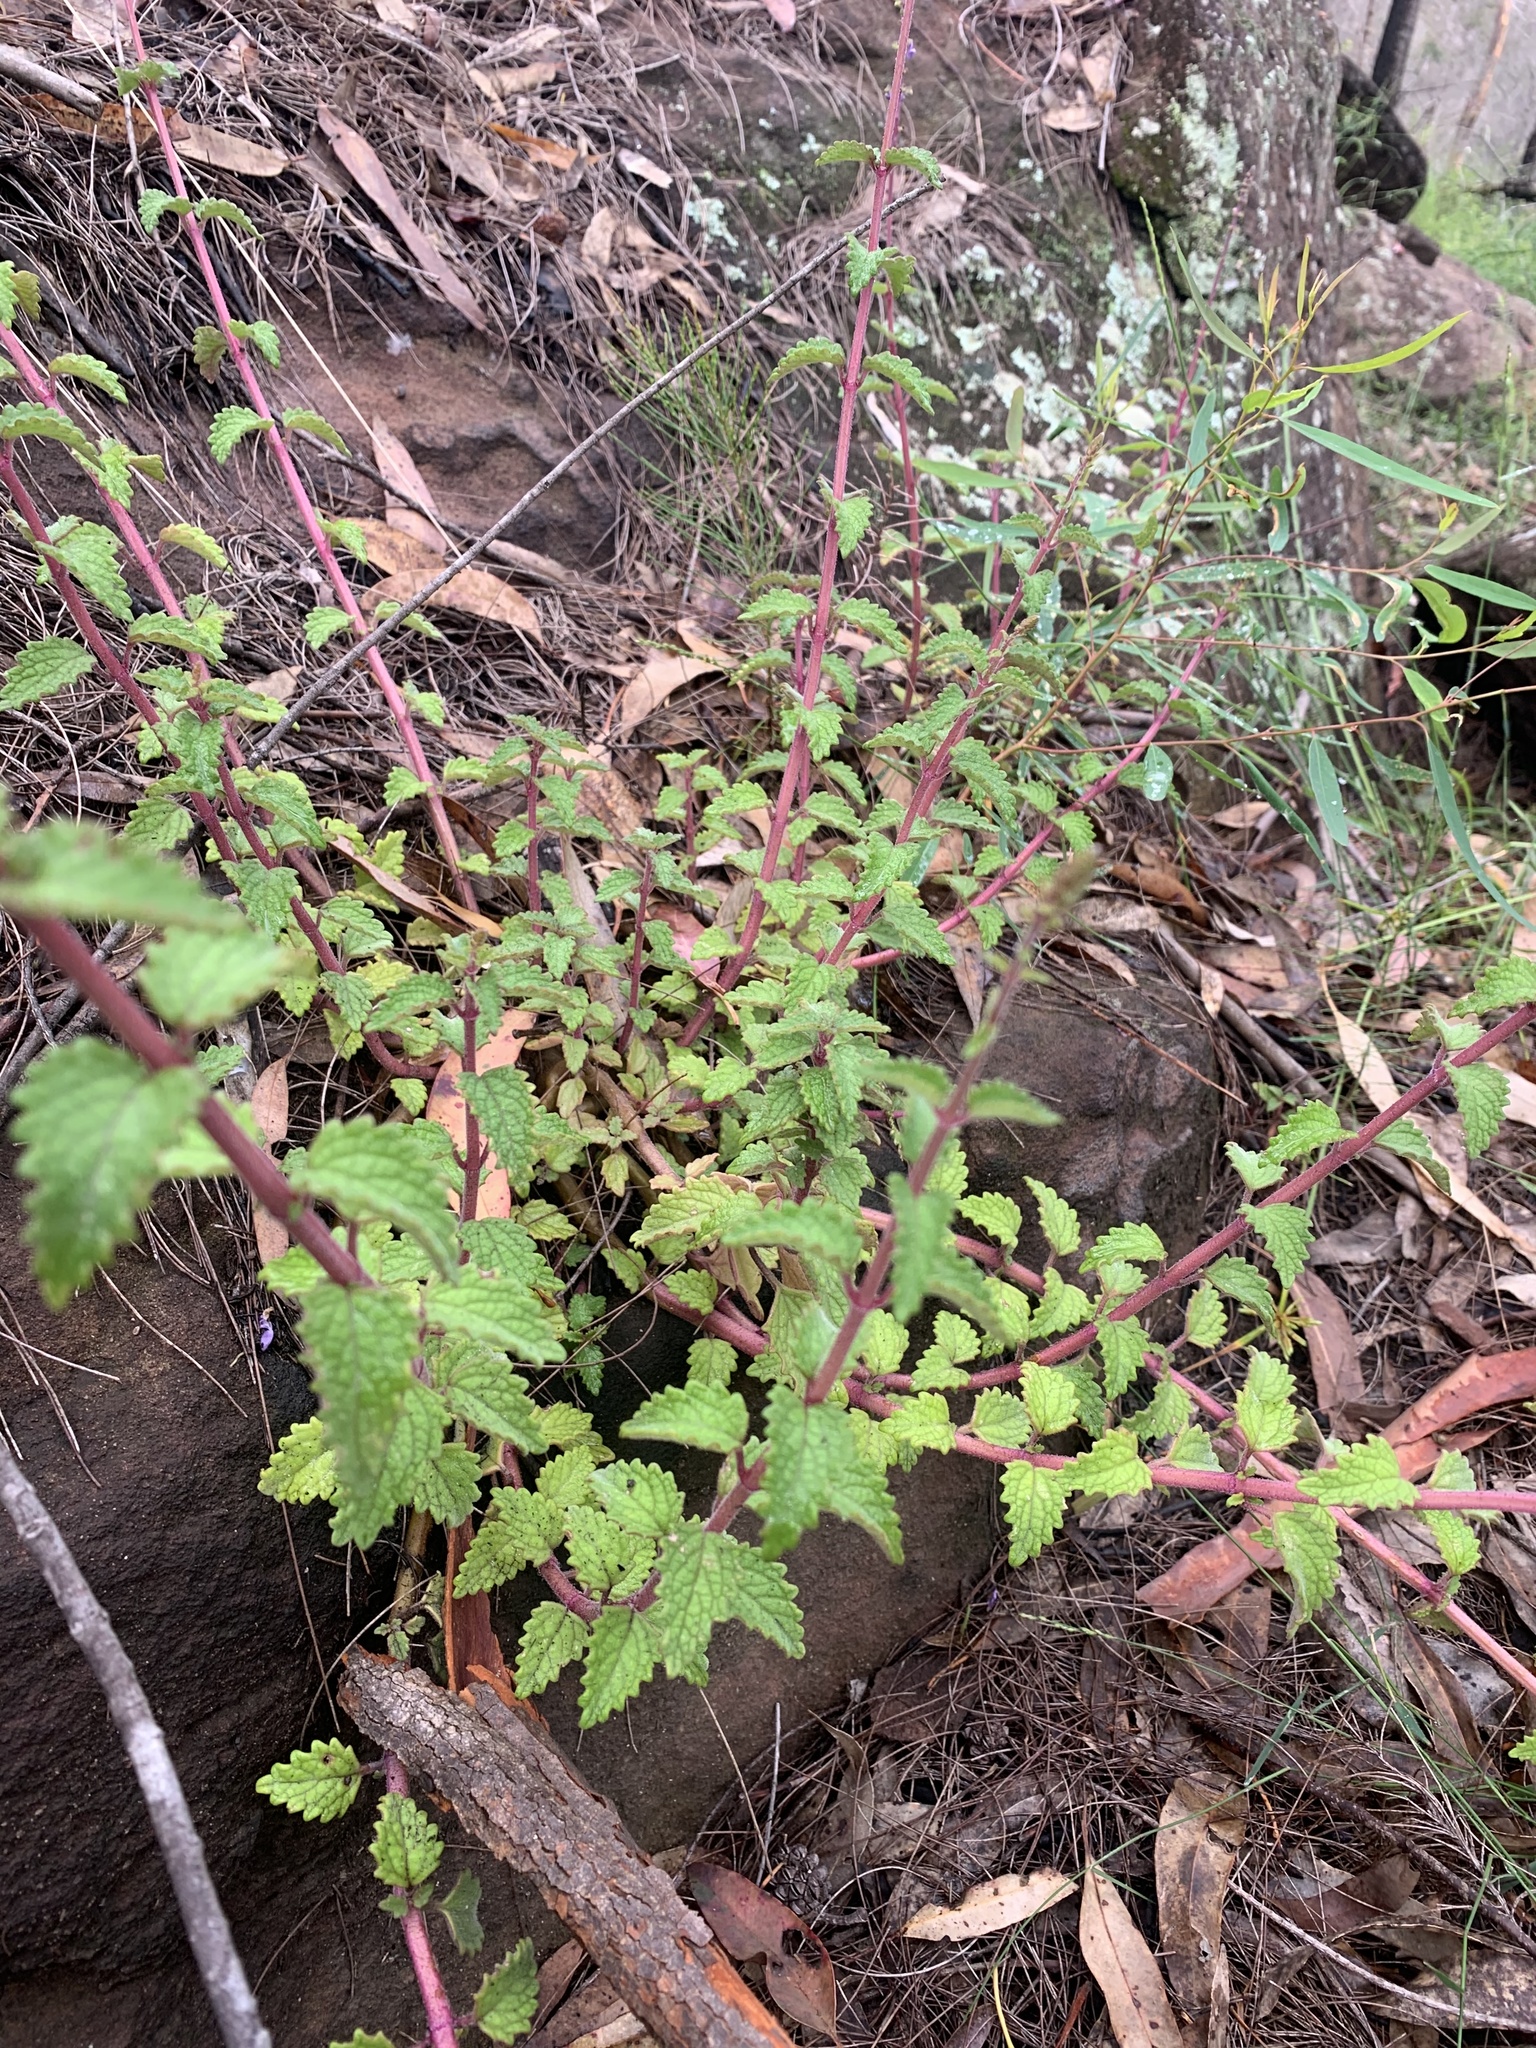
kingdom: Plantae
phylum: Tracheophyta
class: Magnoliopsida
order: Lamiales
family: Lamiaceae
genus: Coleus
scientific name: Coleus australis
